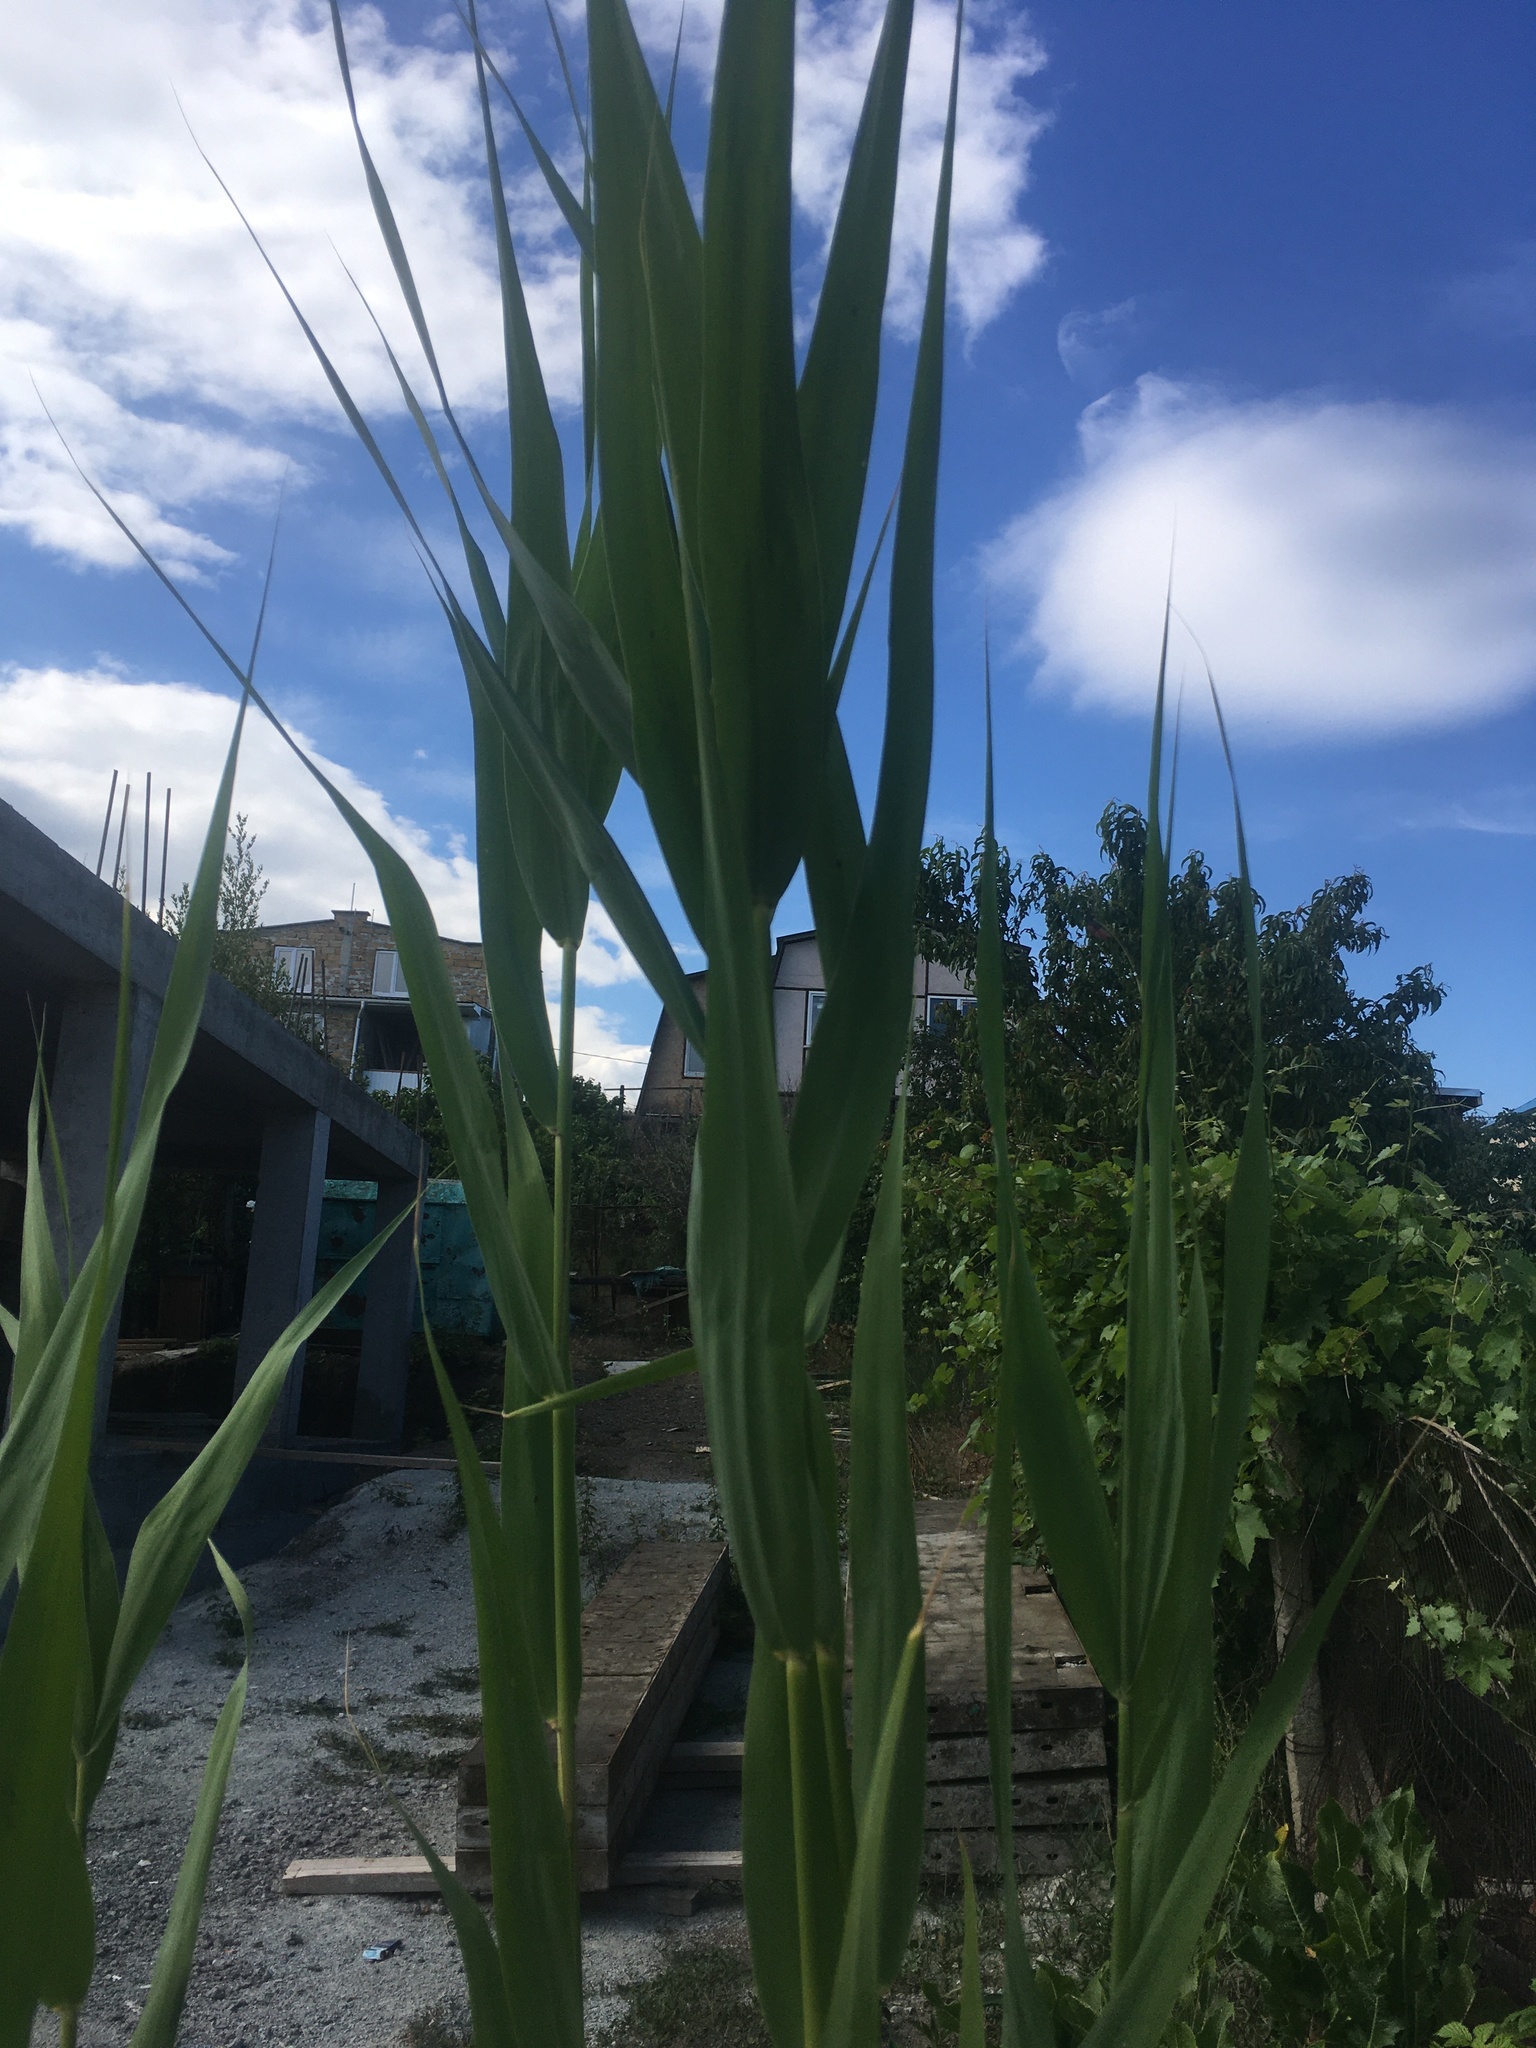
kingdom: Plantae
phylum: Tracheophyta
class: Liliopsida
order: Poales
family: Poaceae
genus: Phragmites
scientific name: Phragmites australis
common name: Common reed
